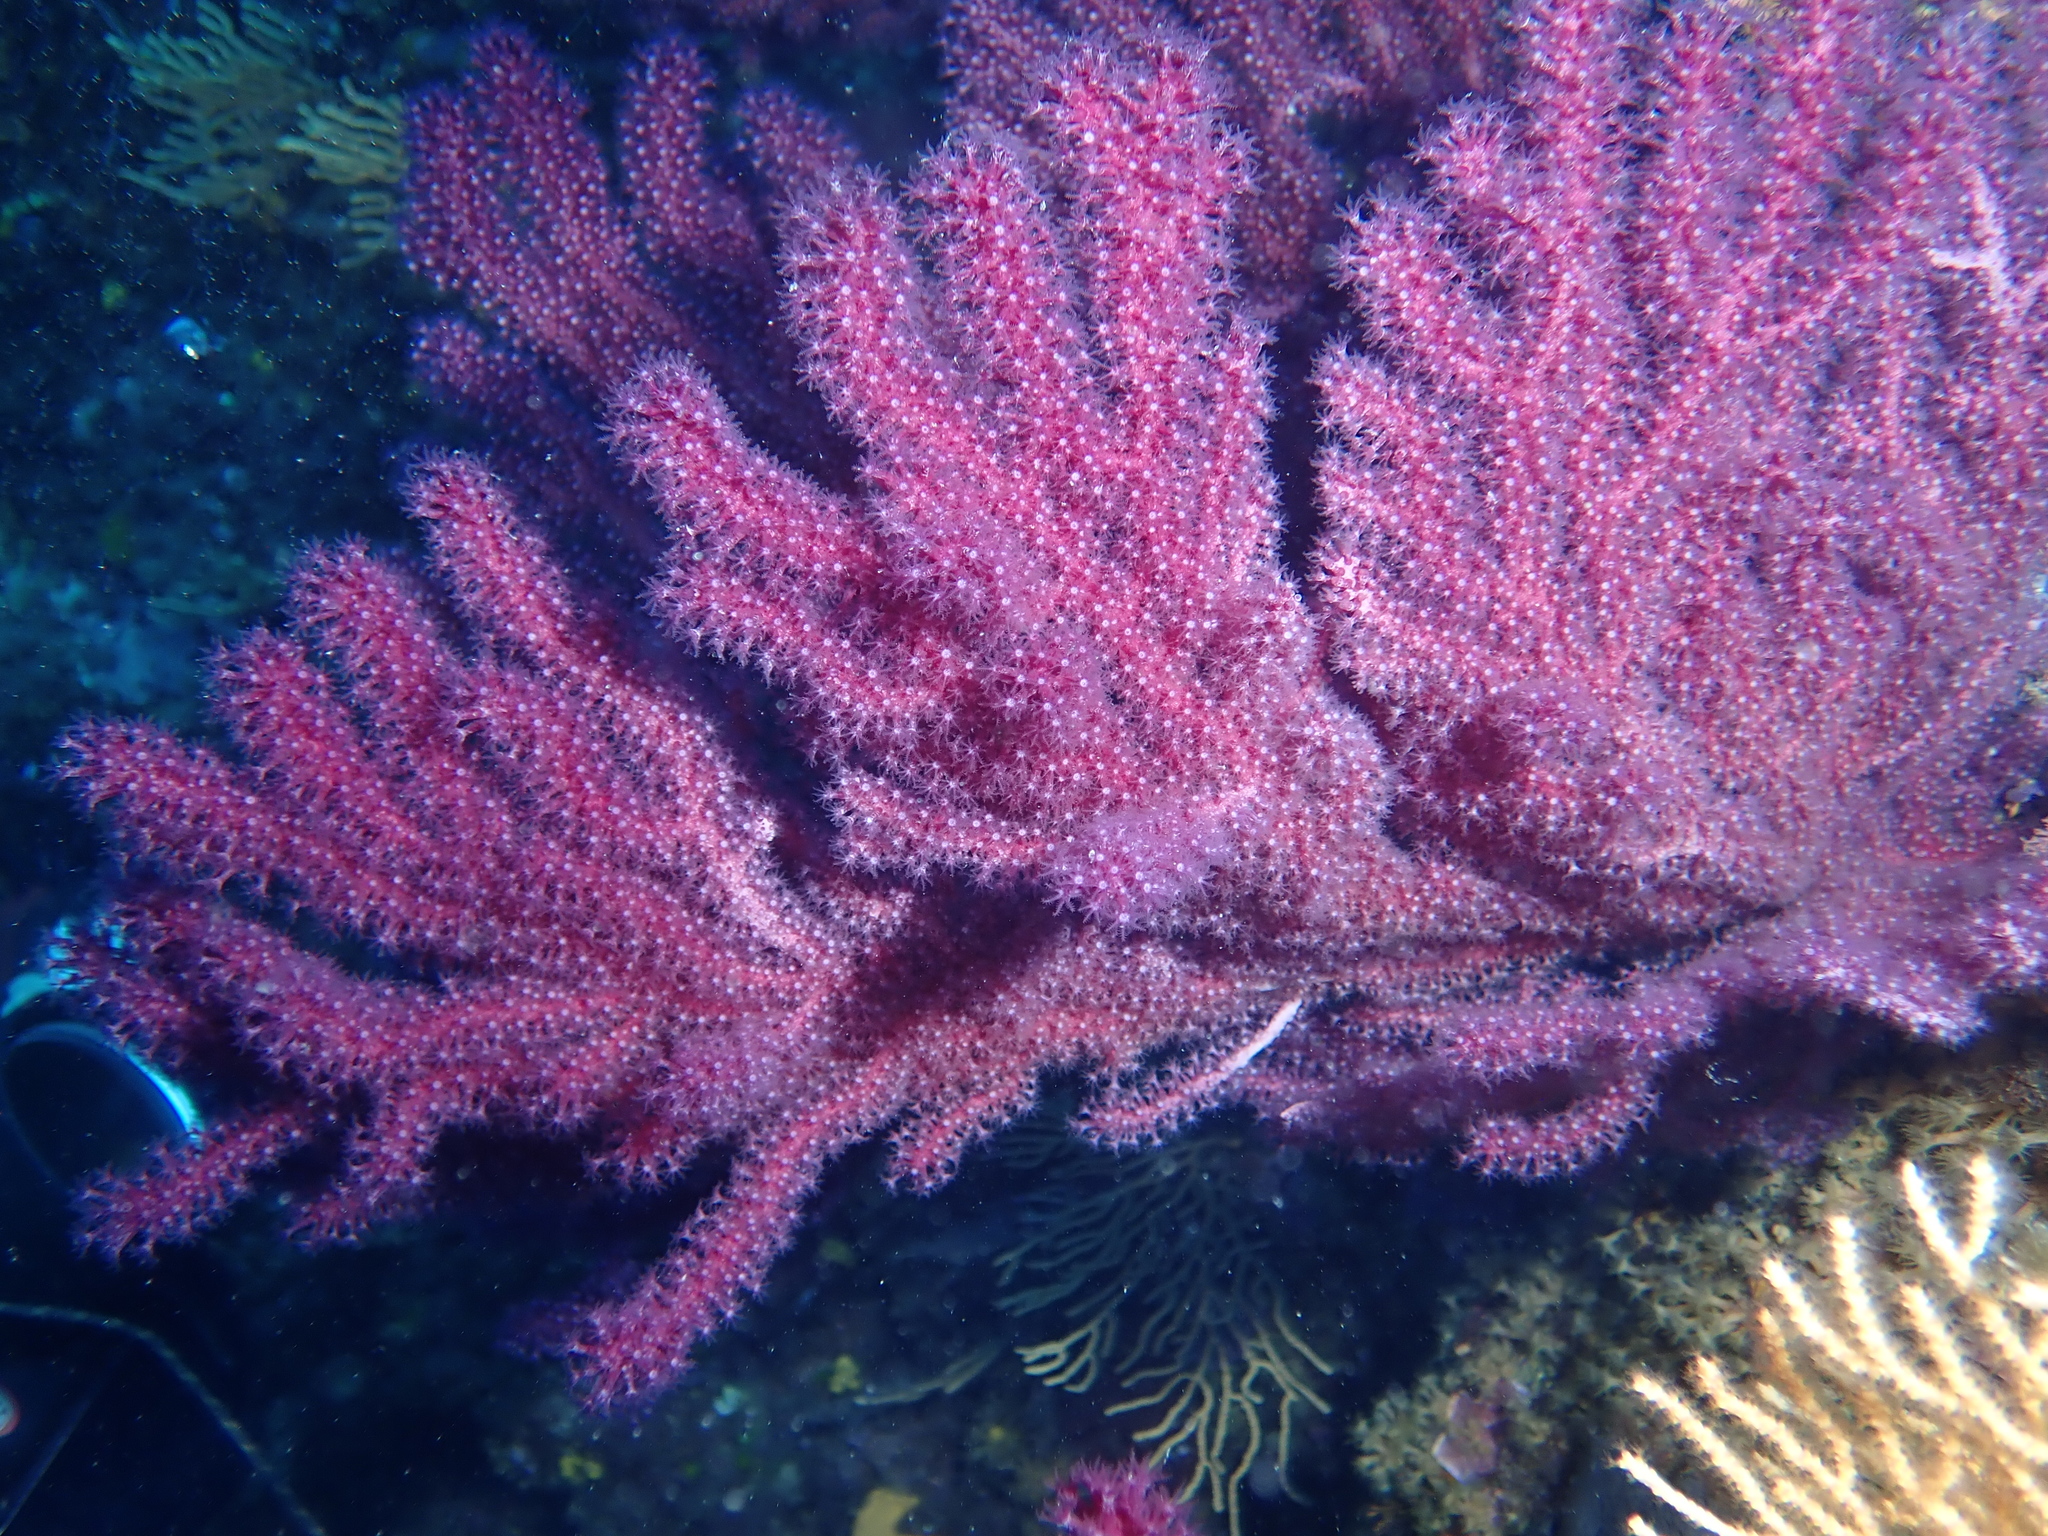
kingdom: Animalia
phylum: Cnidaria
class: Anthozoa
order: Malacalcyonacea
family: Paramuriceidae
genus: Paramuricea
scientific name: Paramuricea clavata
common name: Violescent sea-whip
